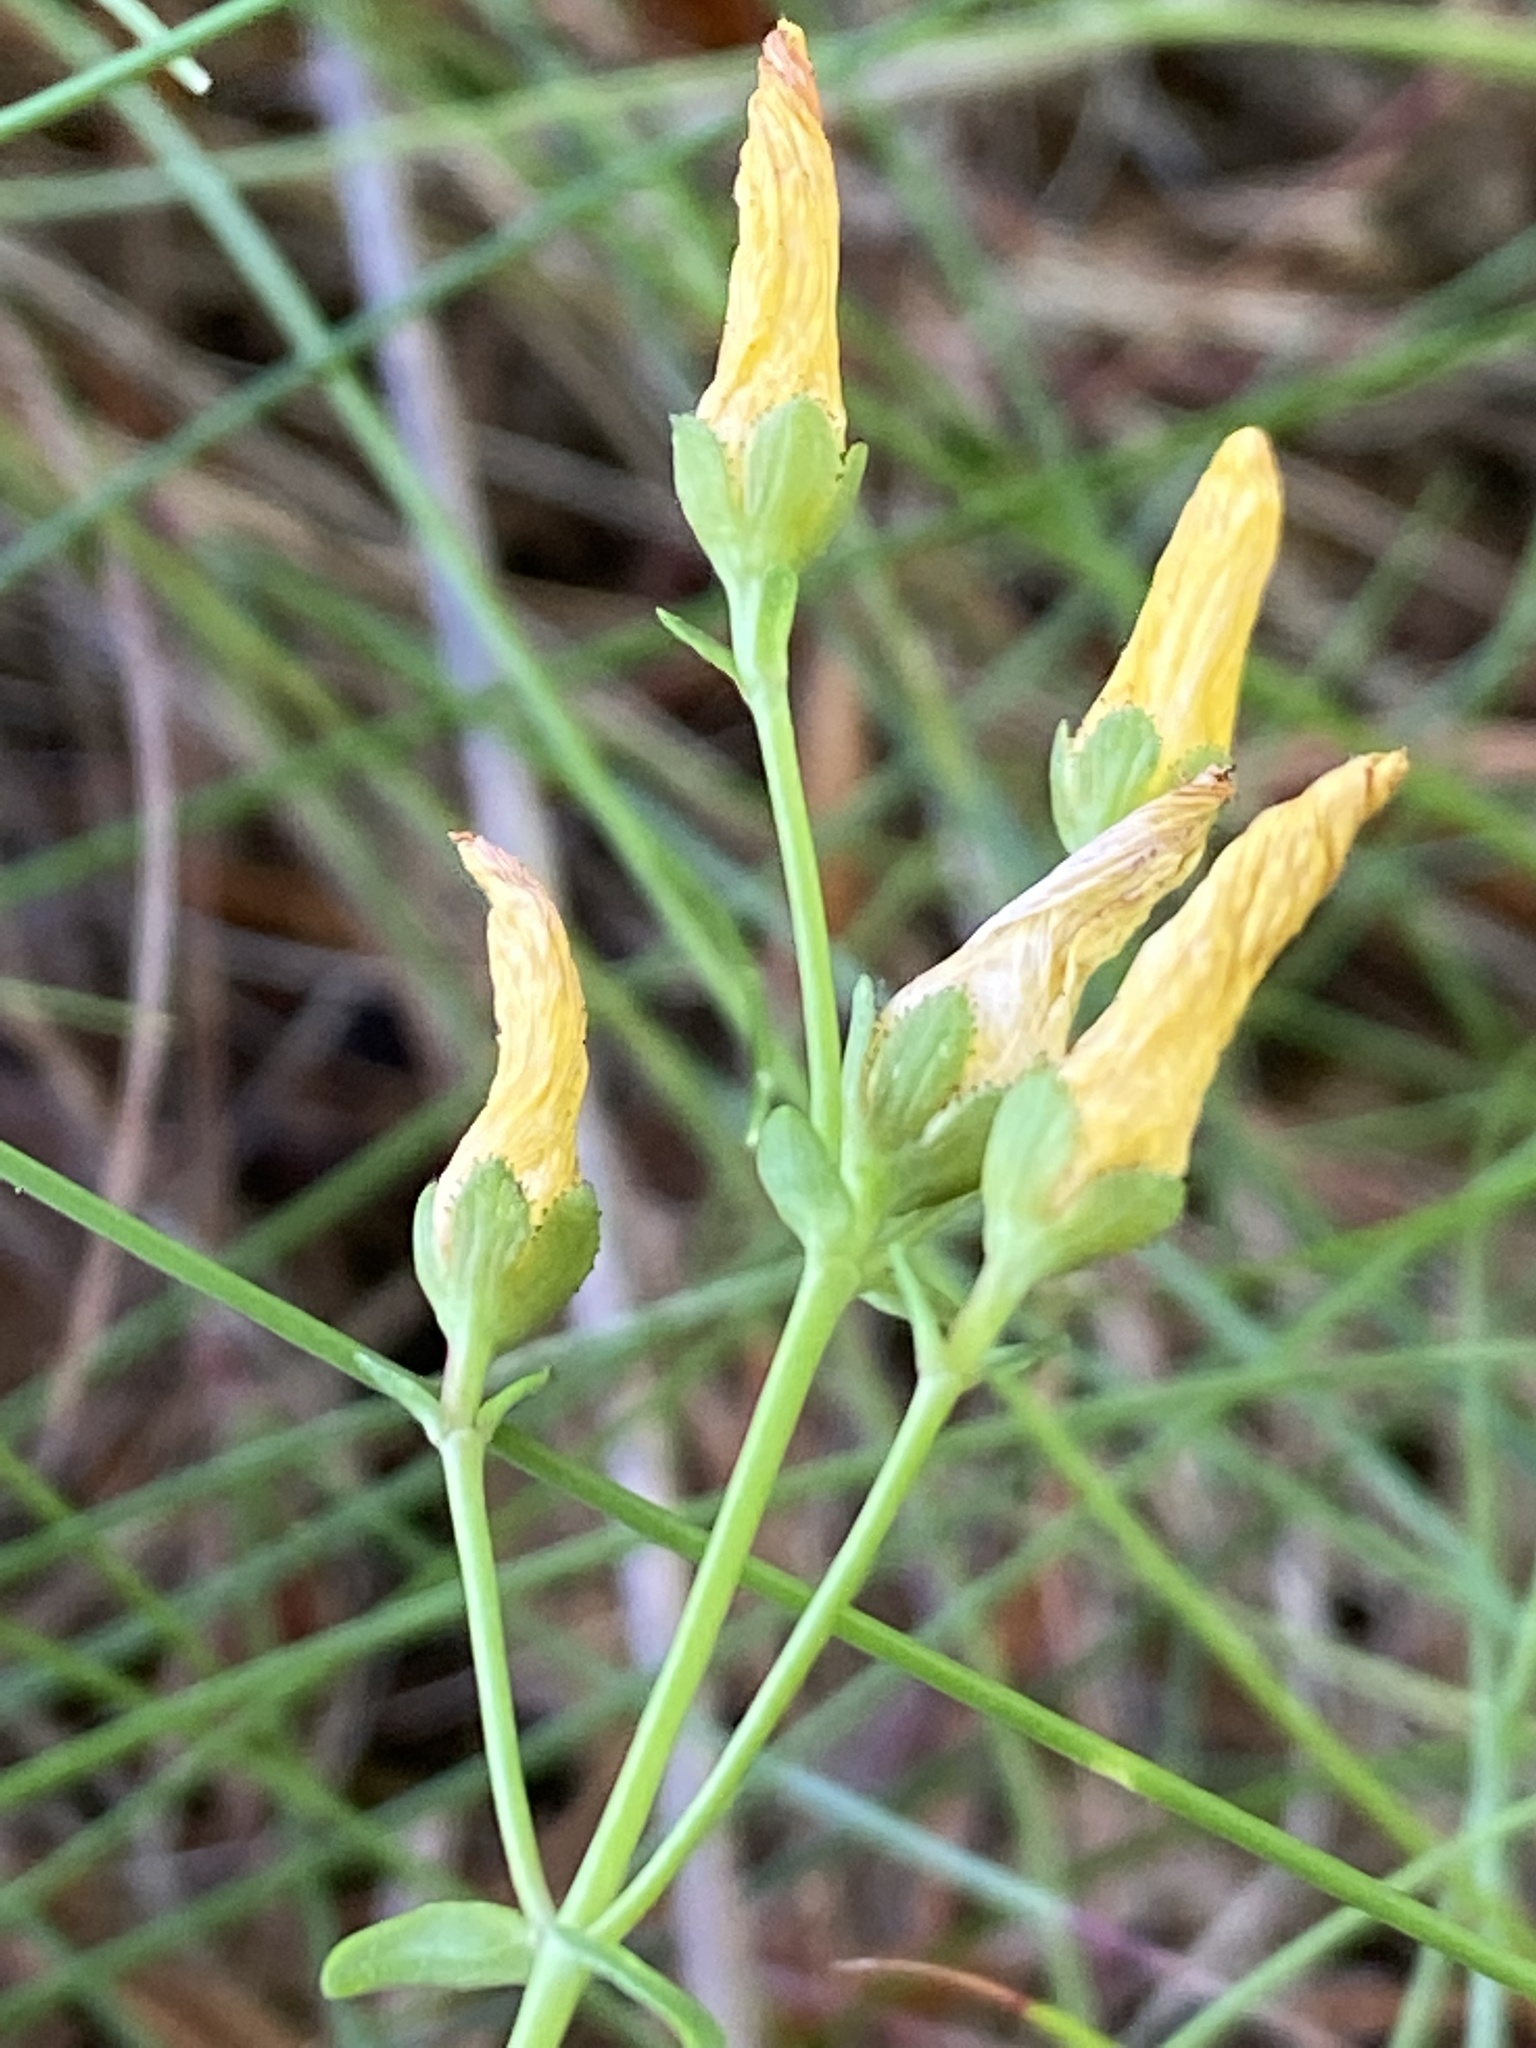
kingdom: Plantae
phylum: Tracheophyta
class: Magnoliopsida
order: Malpighiales
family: Hypericaceae
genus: Hypericum
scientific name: Hypericum pulchrum
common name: Slender st. john's-wort
